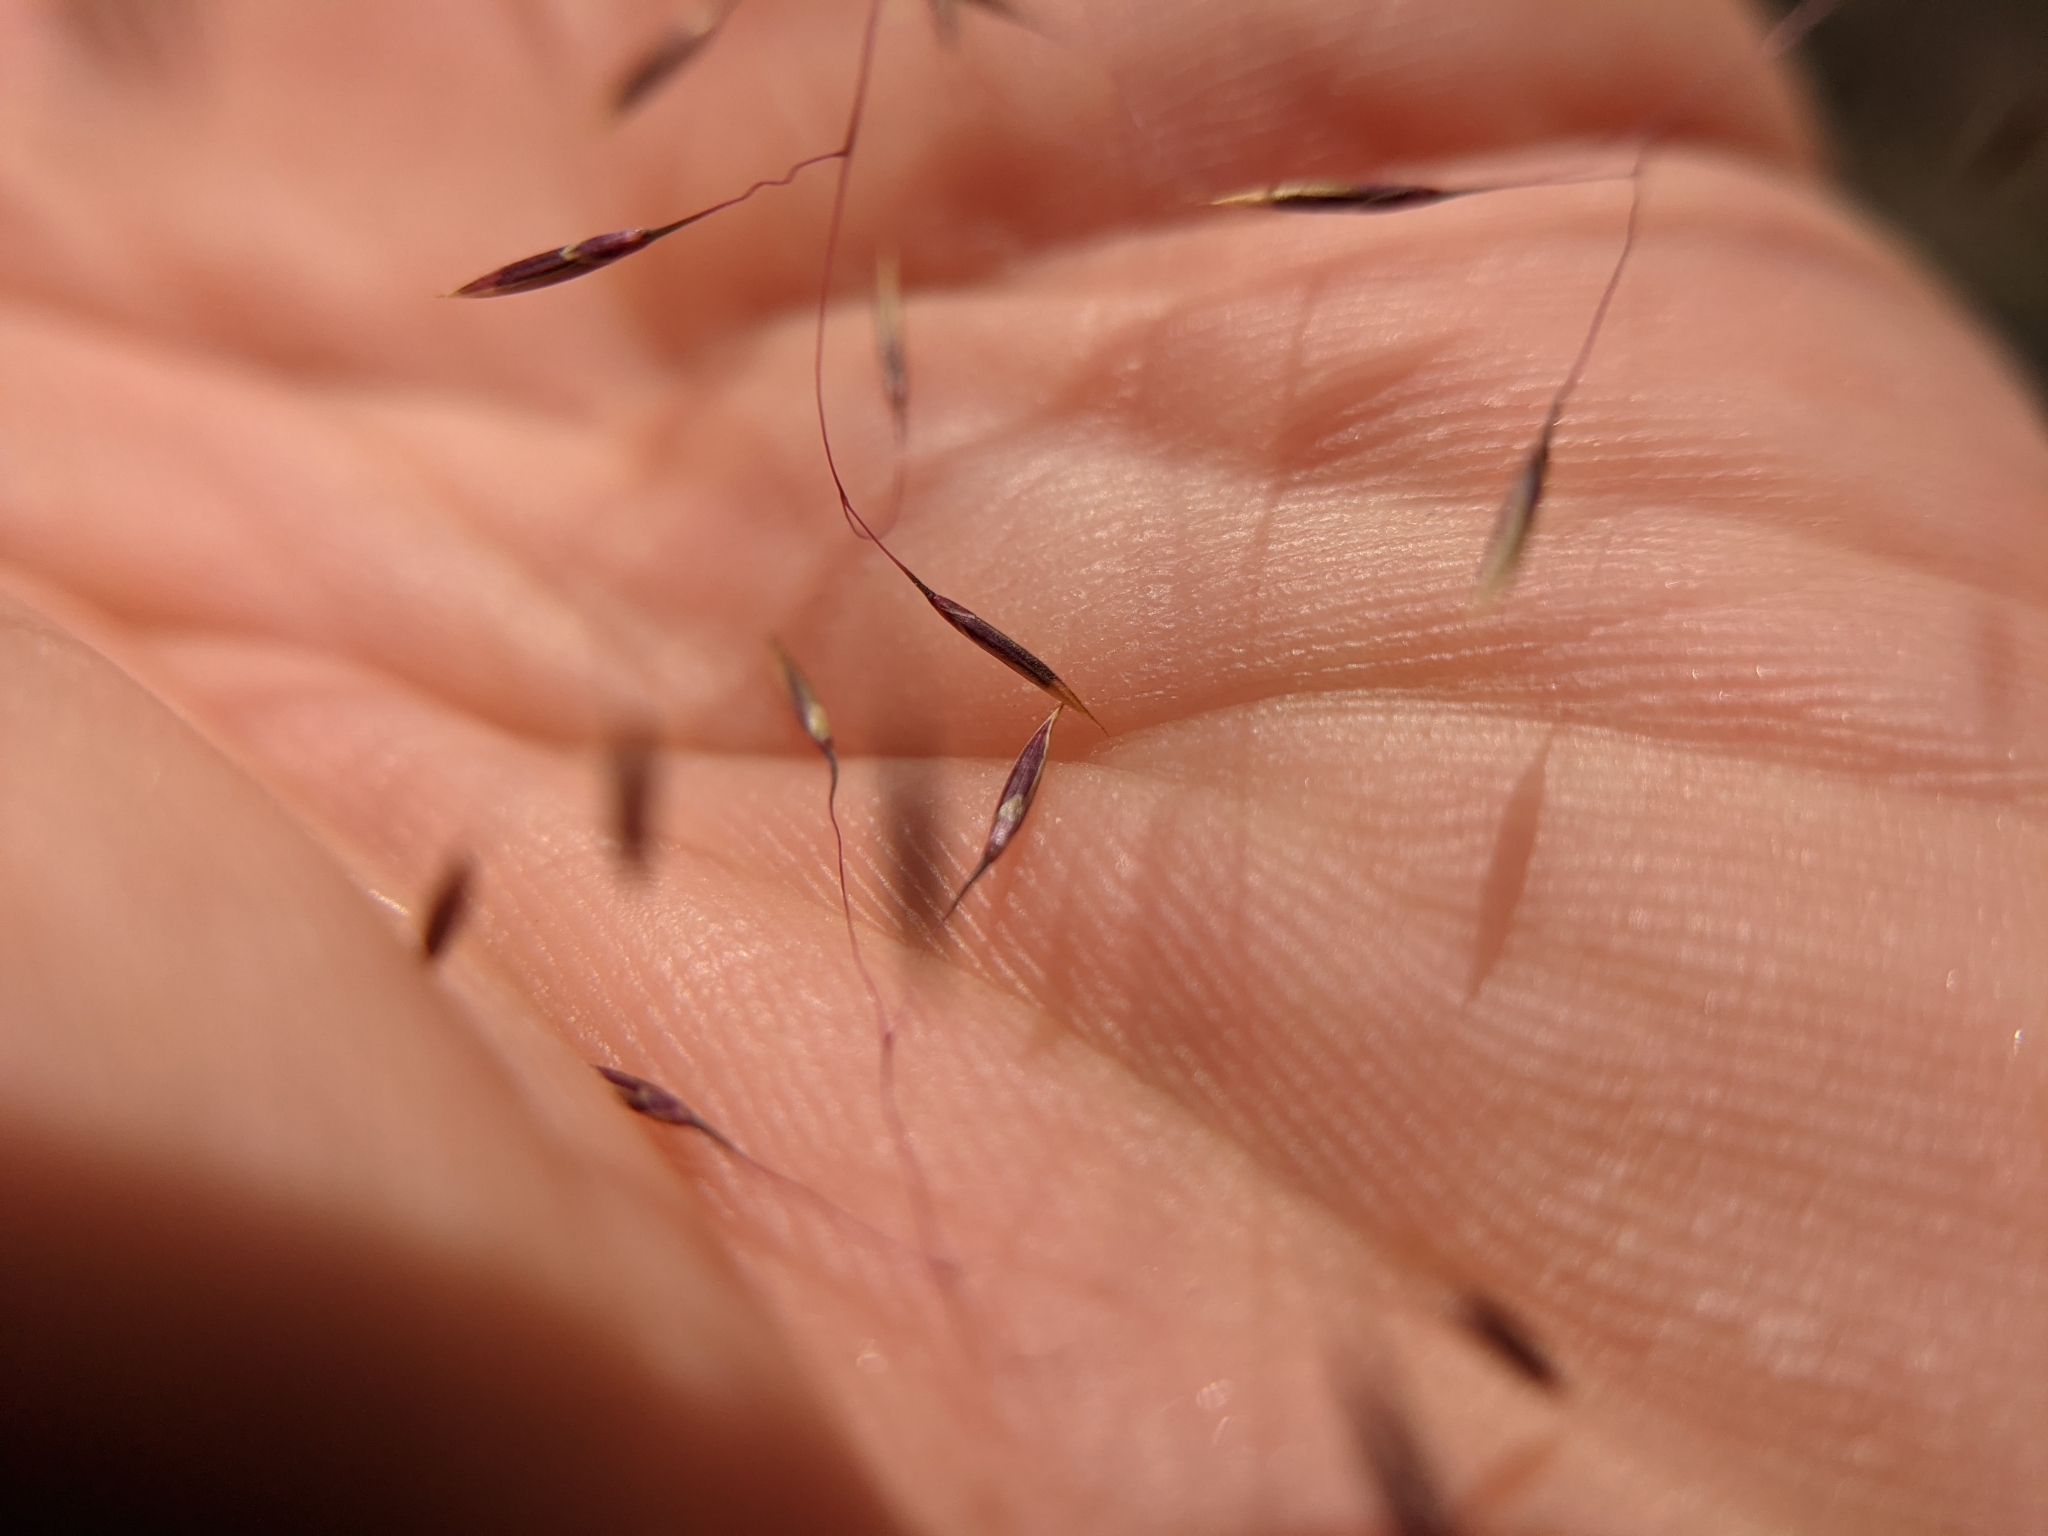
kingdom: Plantae
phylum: Tracheophyta
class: Liliopsida
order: Poales
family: Poaceae
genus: Muhlenbergia
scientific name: Muhlenbergia reverchonii
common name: Seep muhly
